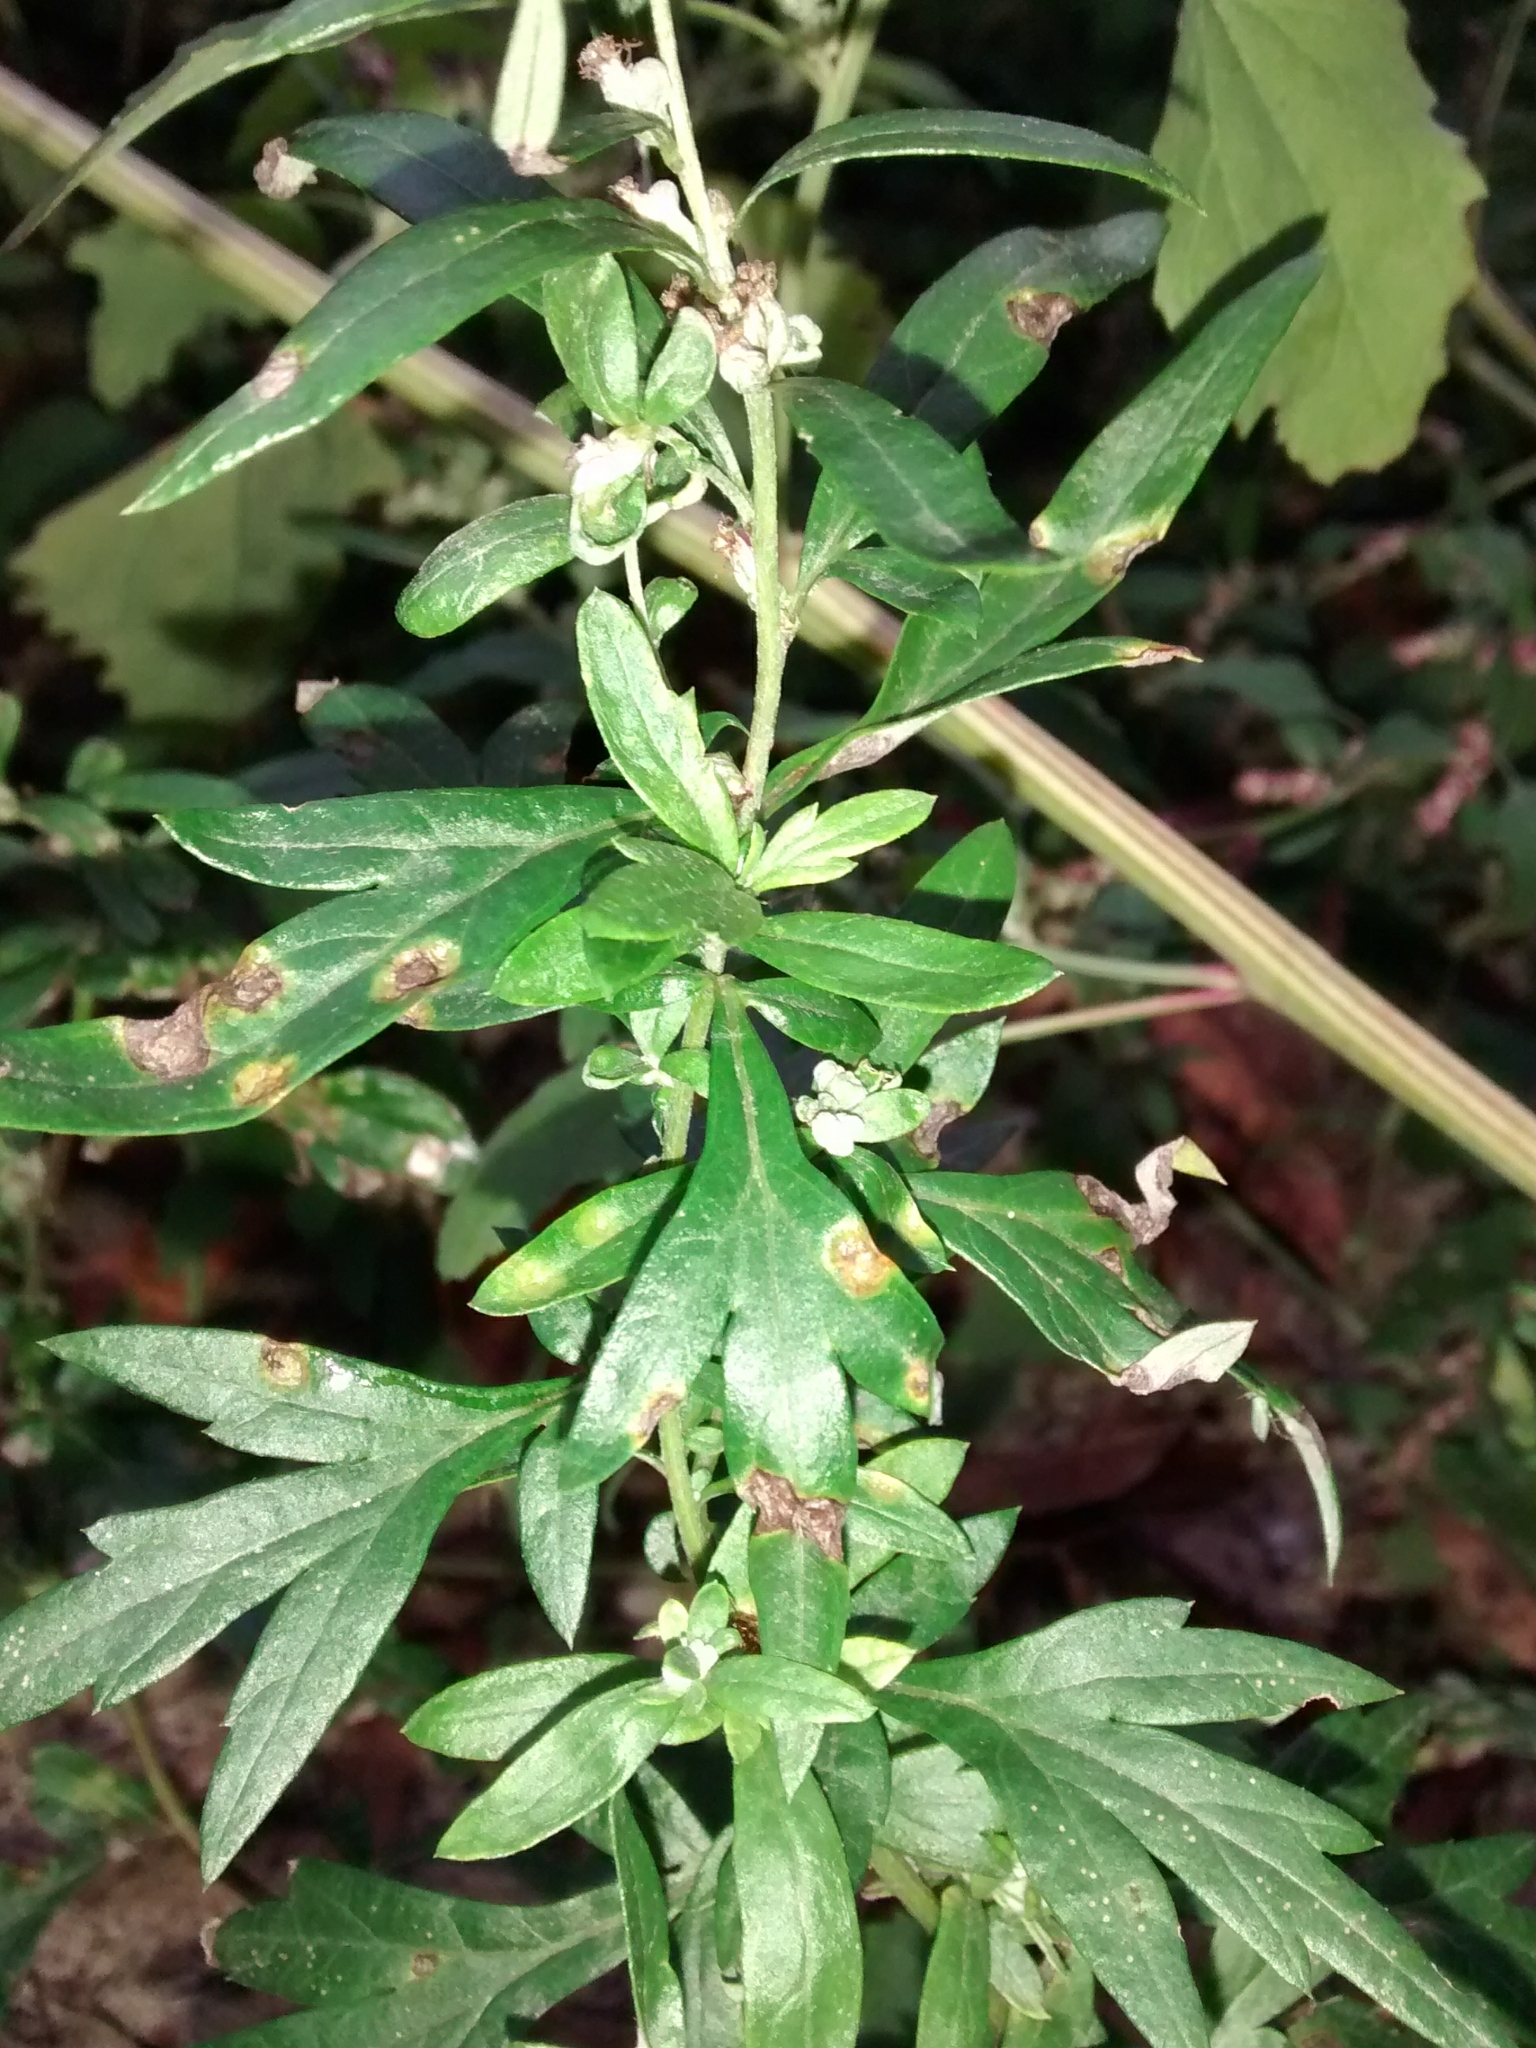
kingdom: Plantae
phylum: Tracheophyta
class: Magnoliopsida
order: Asterales
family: Asteraceae
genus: Artemisia
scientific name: Artemisia vulgaris
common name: Mugwort
